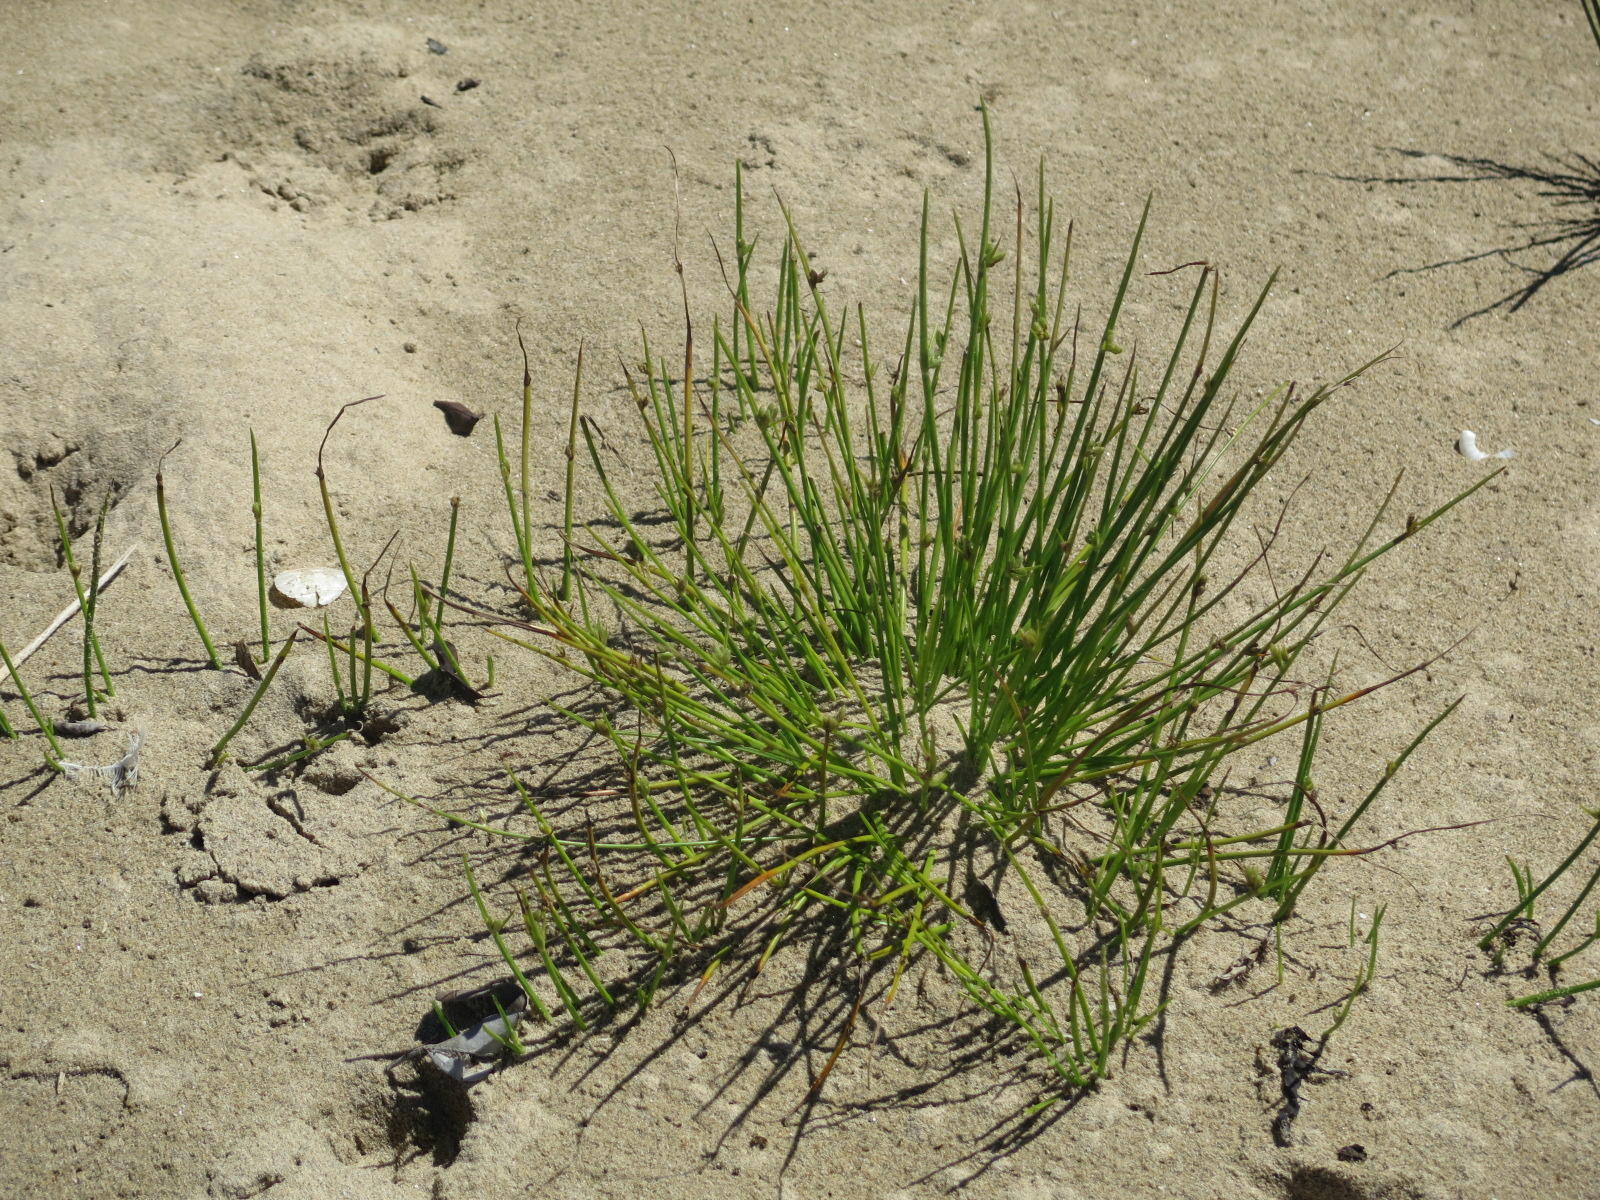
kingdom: Plantae
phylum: Tracheophyta
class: Liliopsida
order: Poales
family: Cyperaceae
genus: Cyperus
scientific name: Cyperus laevigatus
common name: Smooth flat sedge
